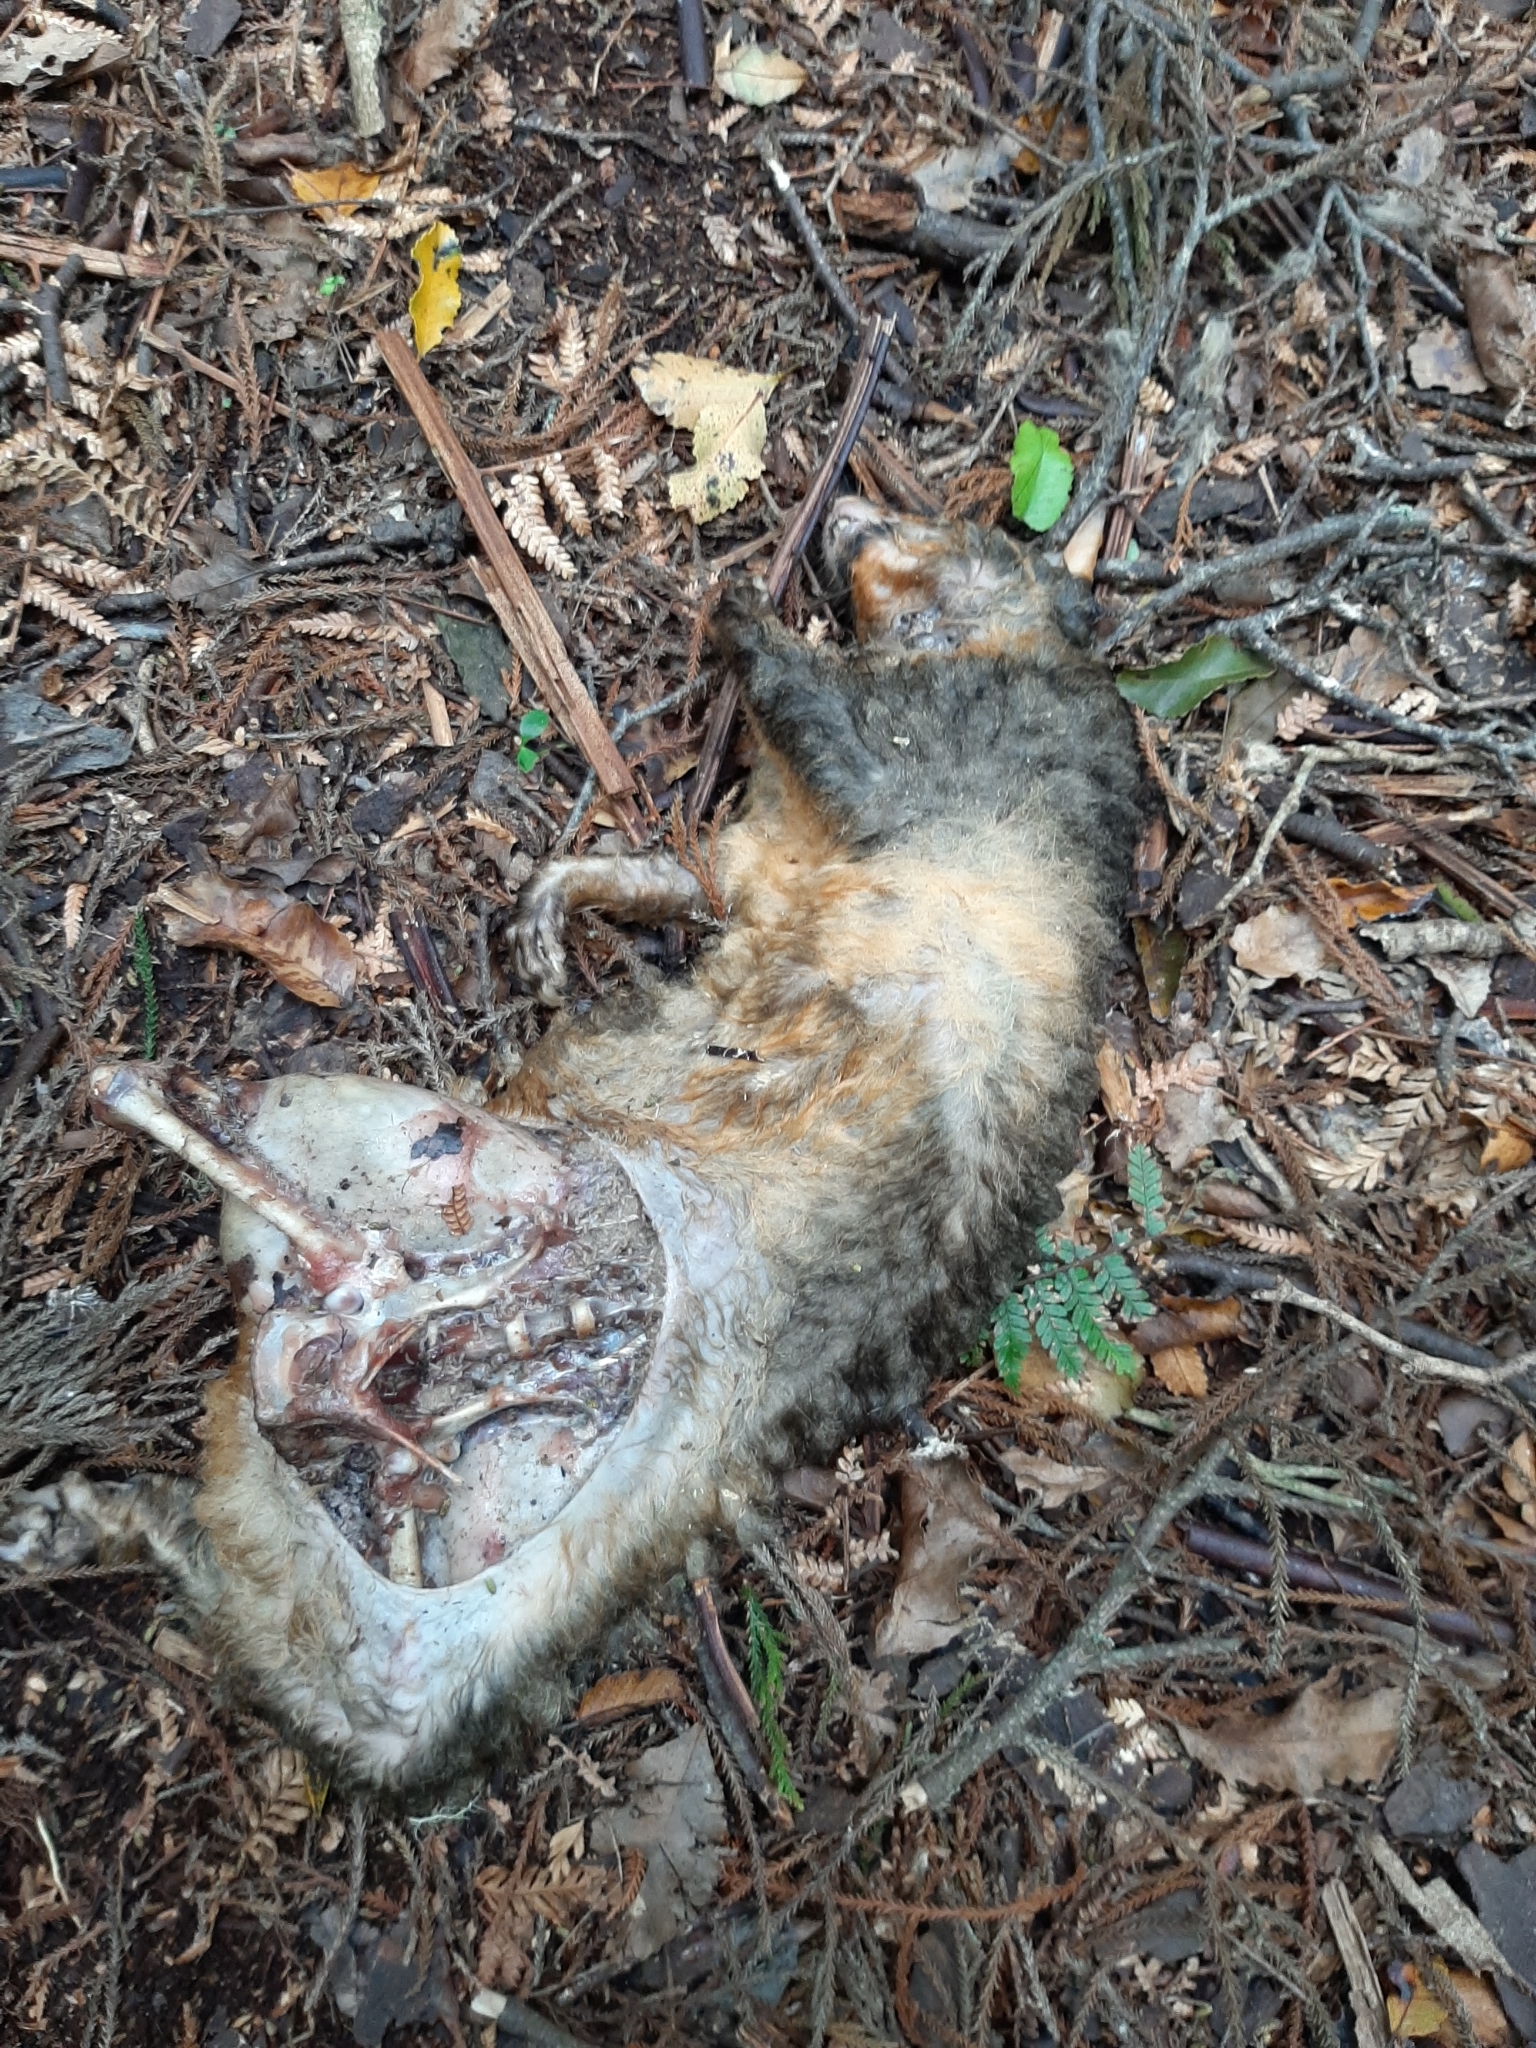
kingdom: Animalia
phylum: Chordata
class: Mammalia
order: Diprotodontia
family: Phalangeridae
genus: Trichosurus
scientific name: Trichosurus vulpecula
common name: Common brushtail
